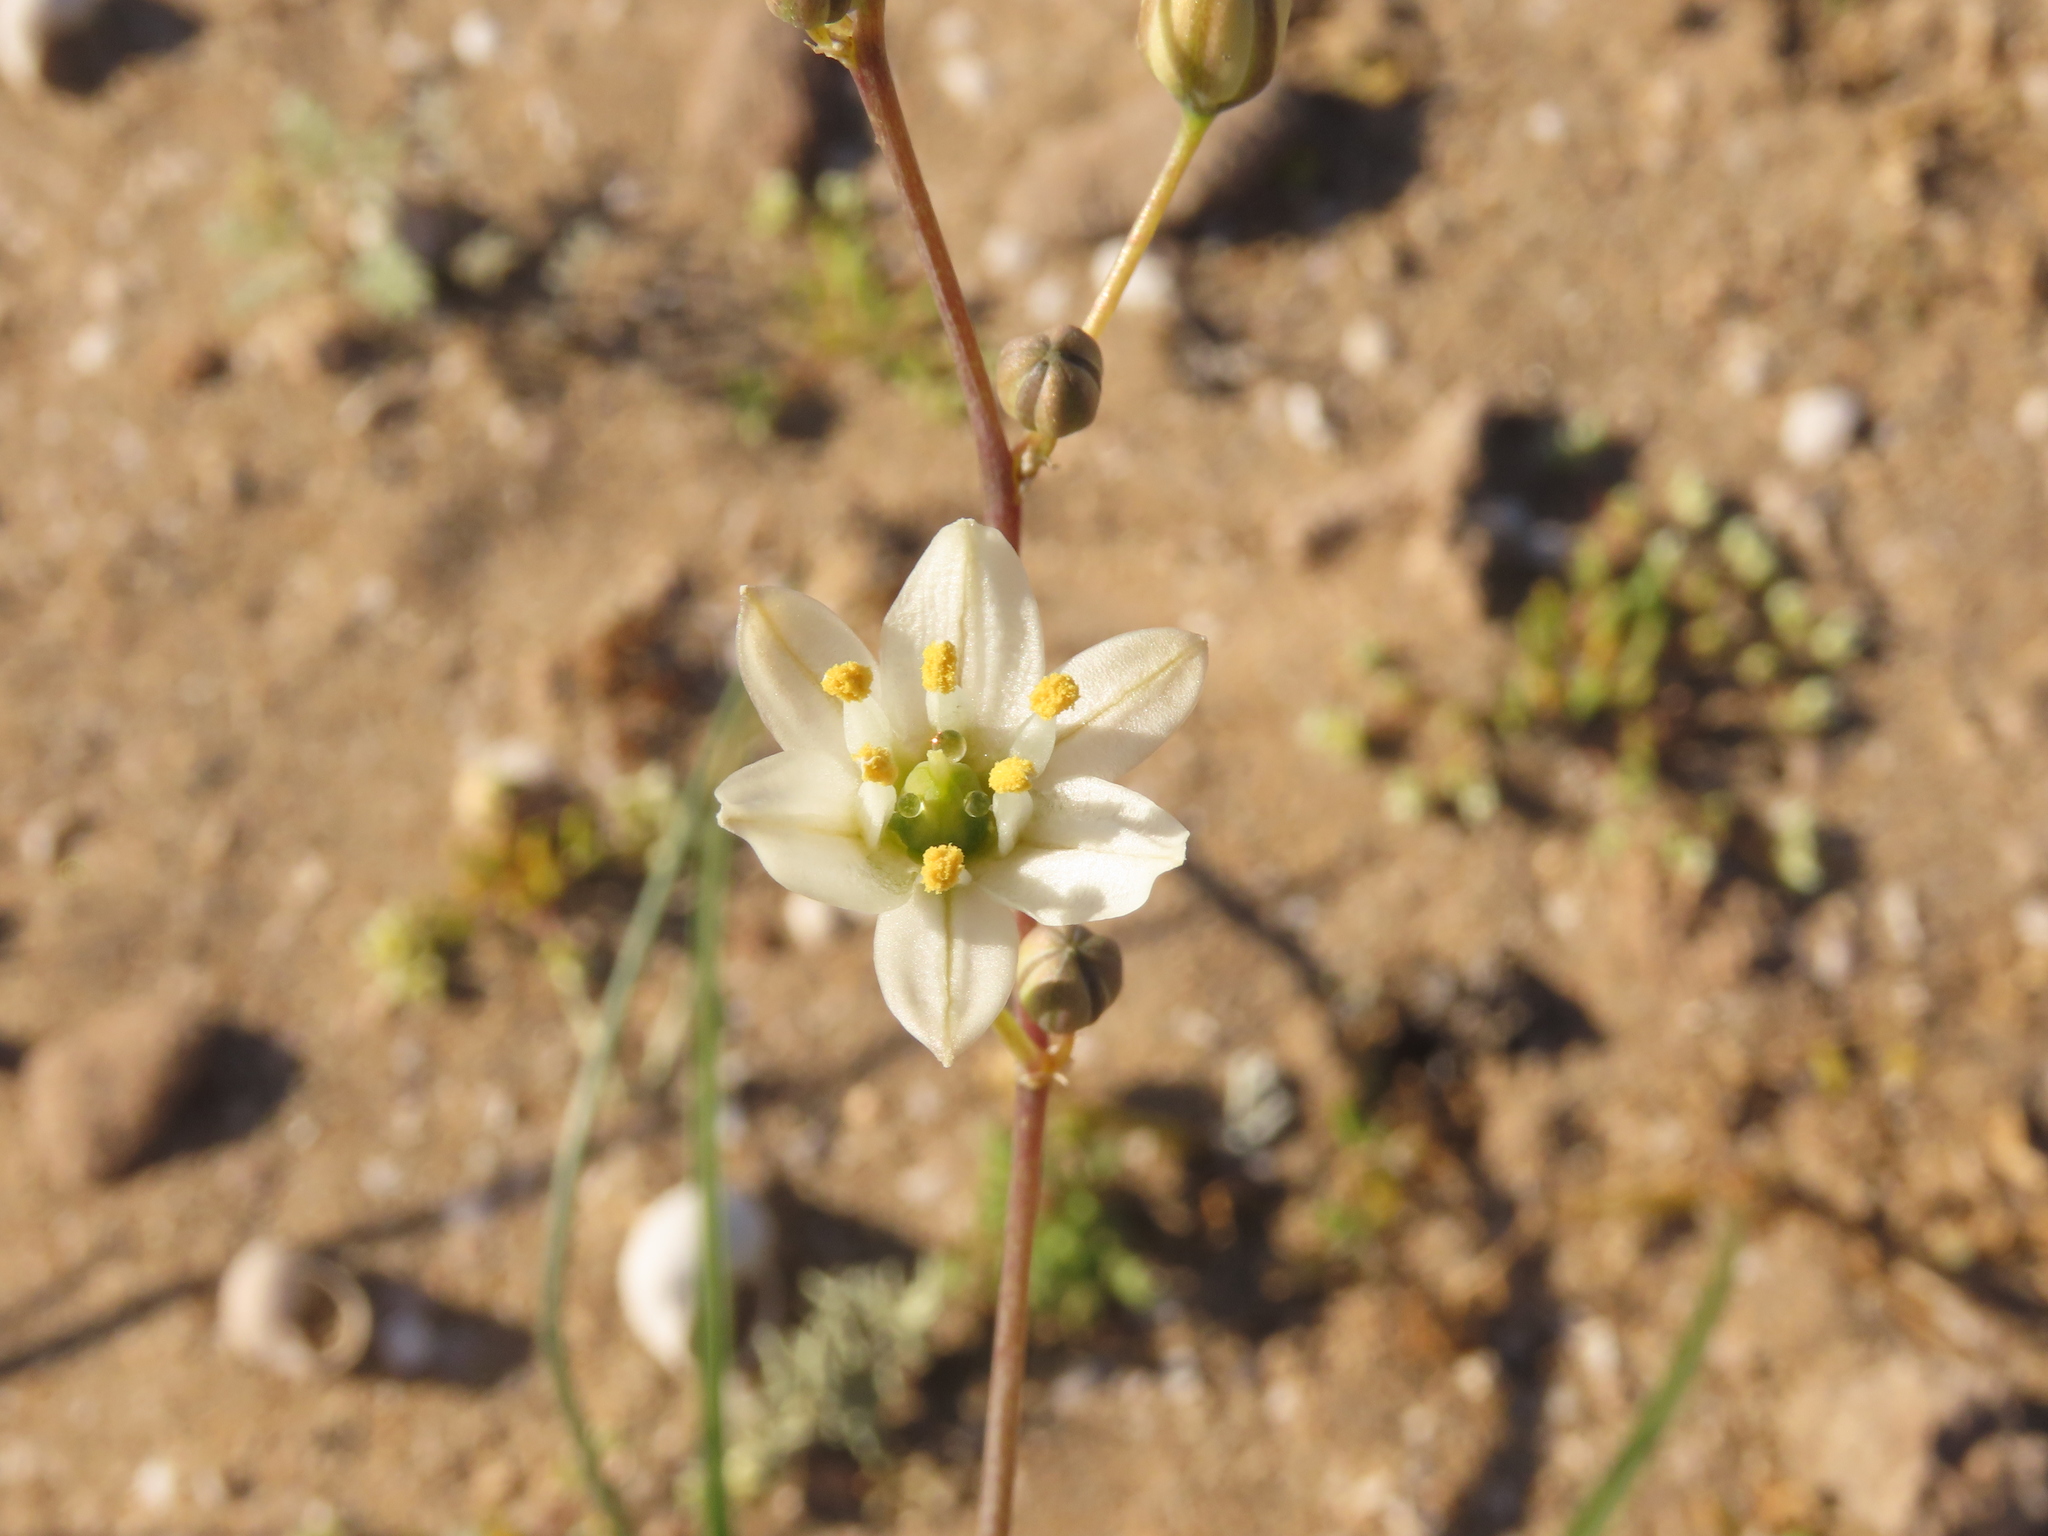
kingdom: Plantae
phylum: Tracheophyta
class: Liliopsida
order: Asparagales
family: Asparagaceae
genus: Oziroe
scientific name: Oziroe arida
